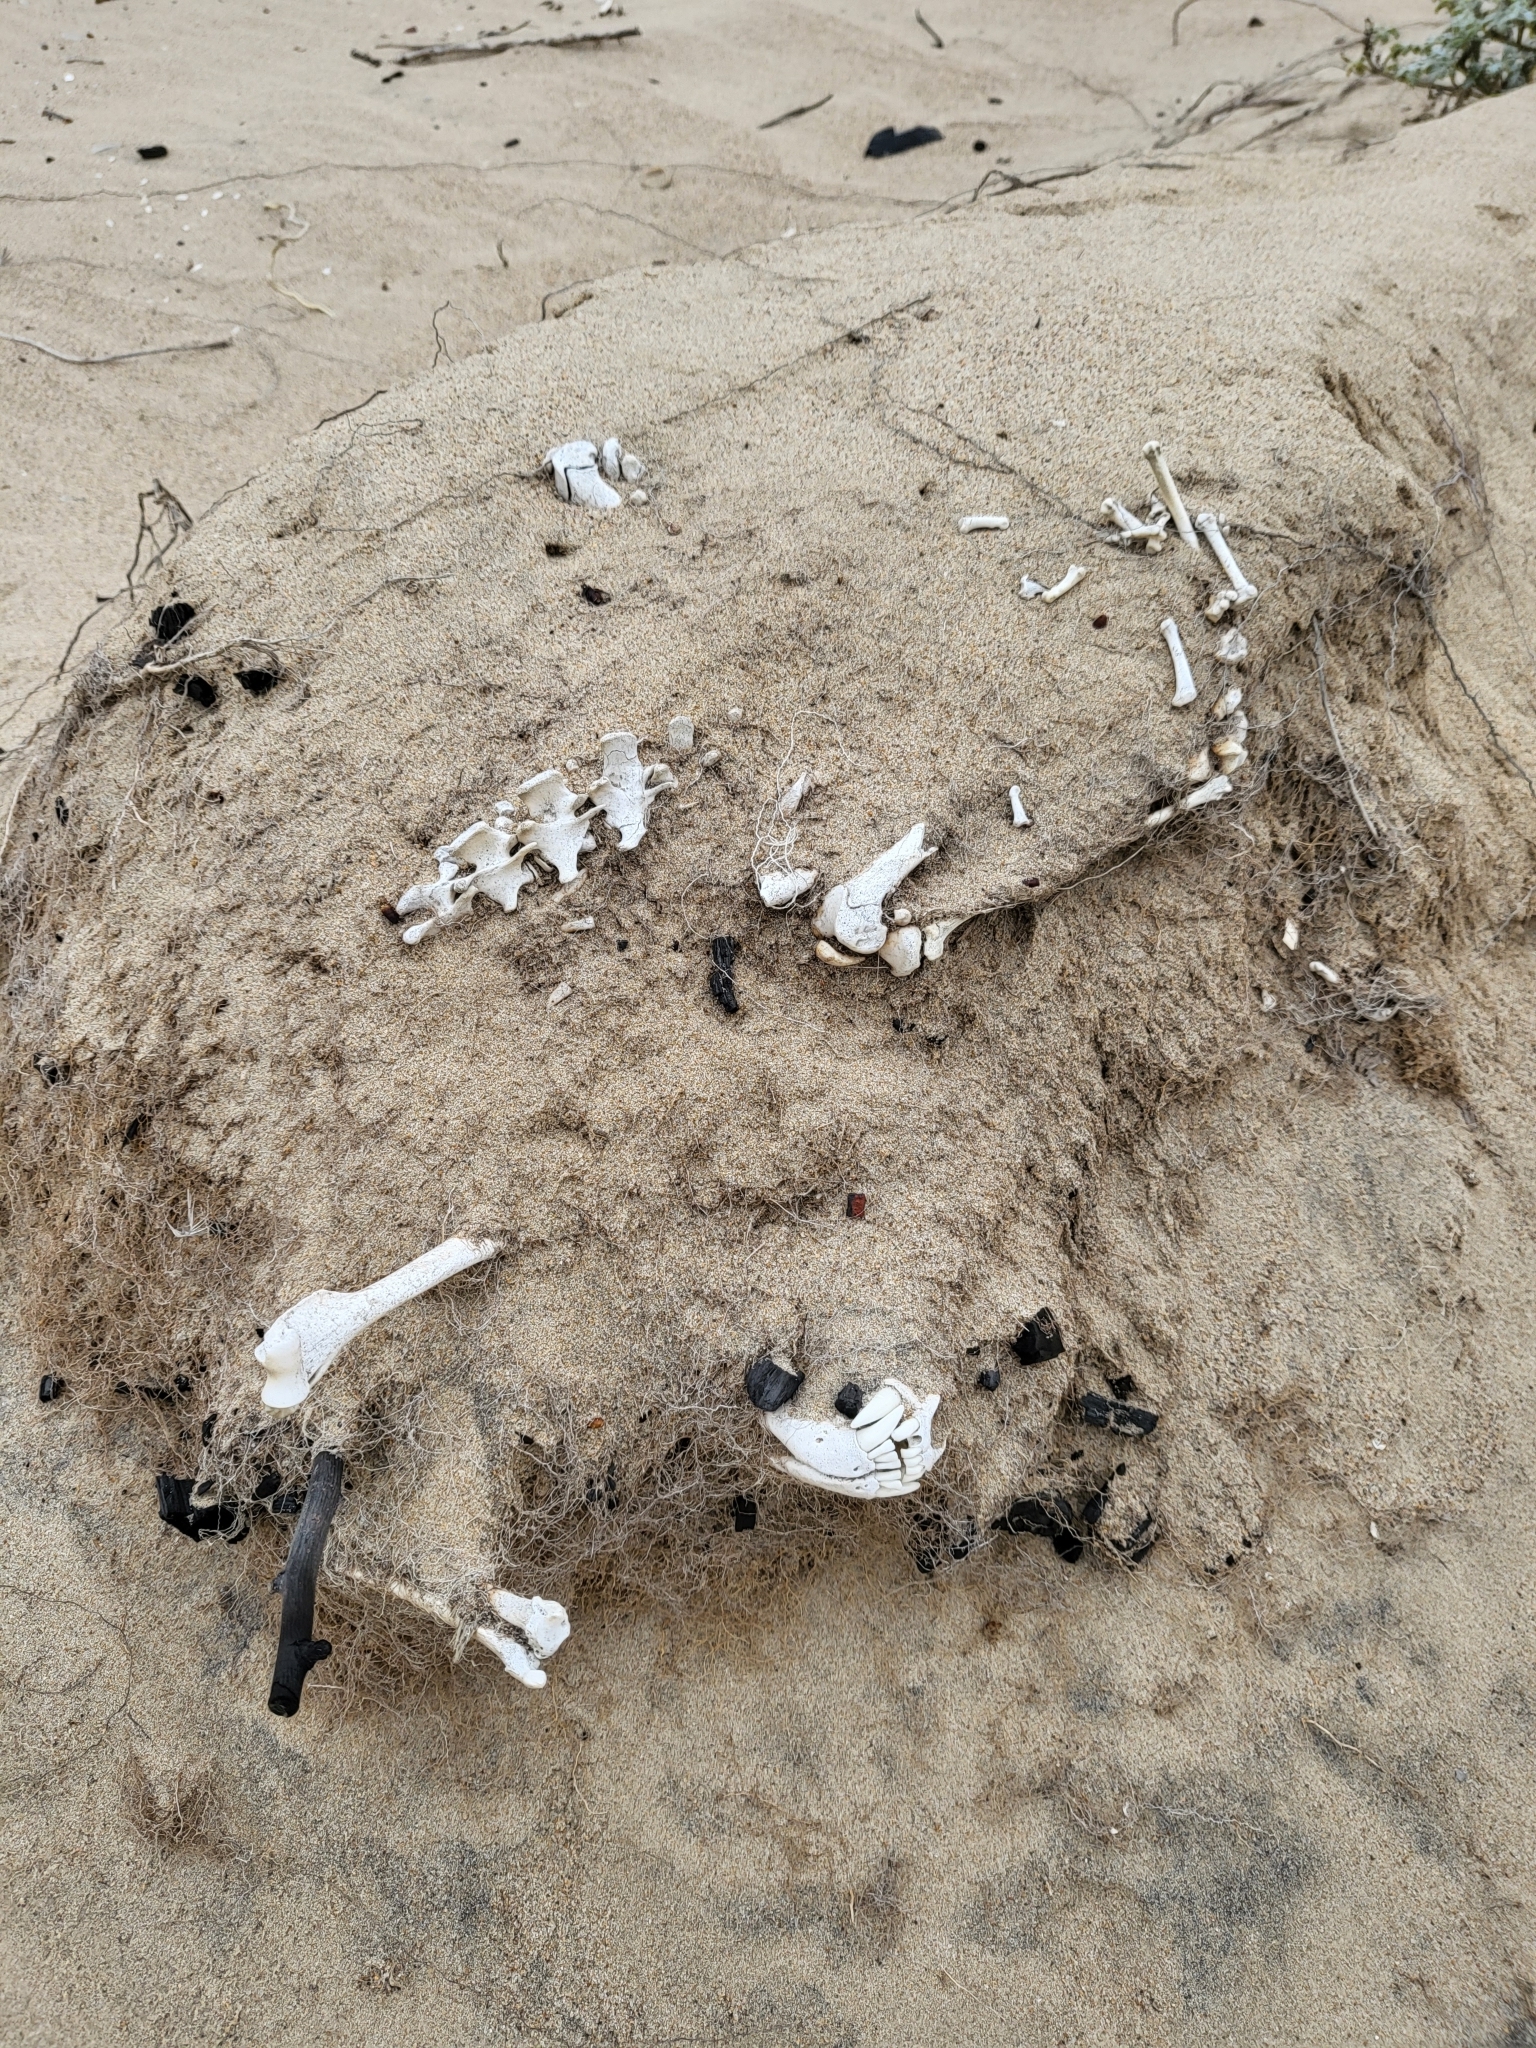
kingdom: Animalia
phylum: Chordata
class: Mammalia
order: Carnivora
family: Procyonidae
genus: Procyon
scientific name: Procyon lotor
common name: Raccoon
